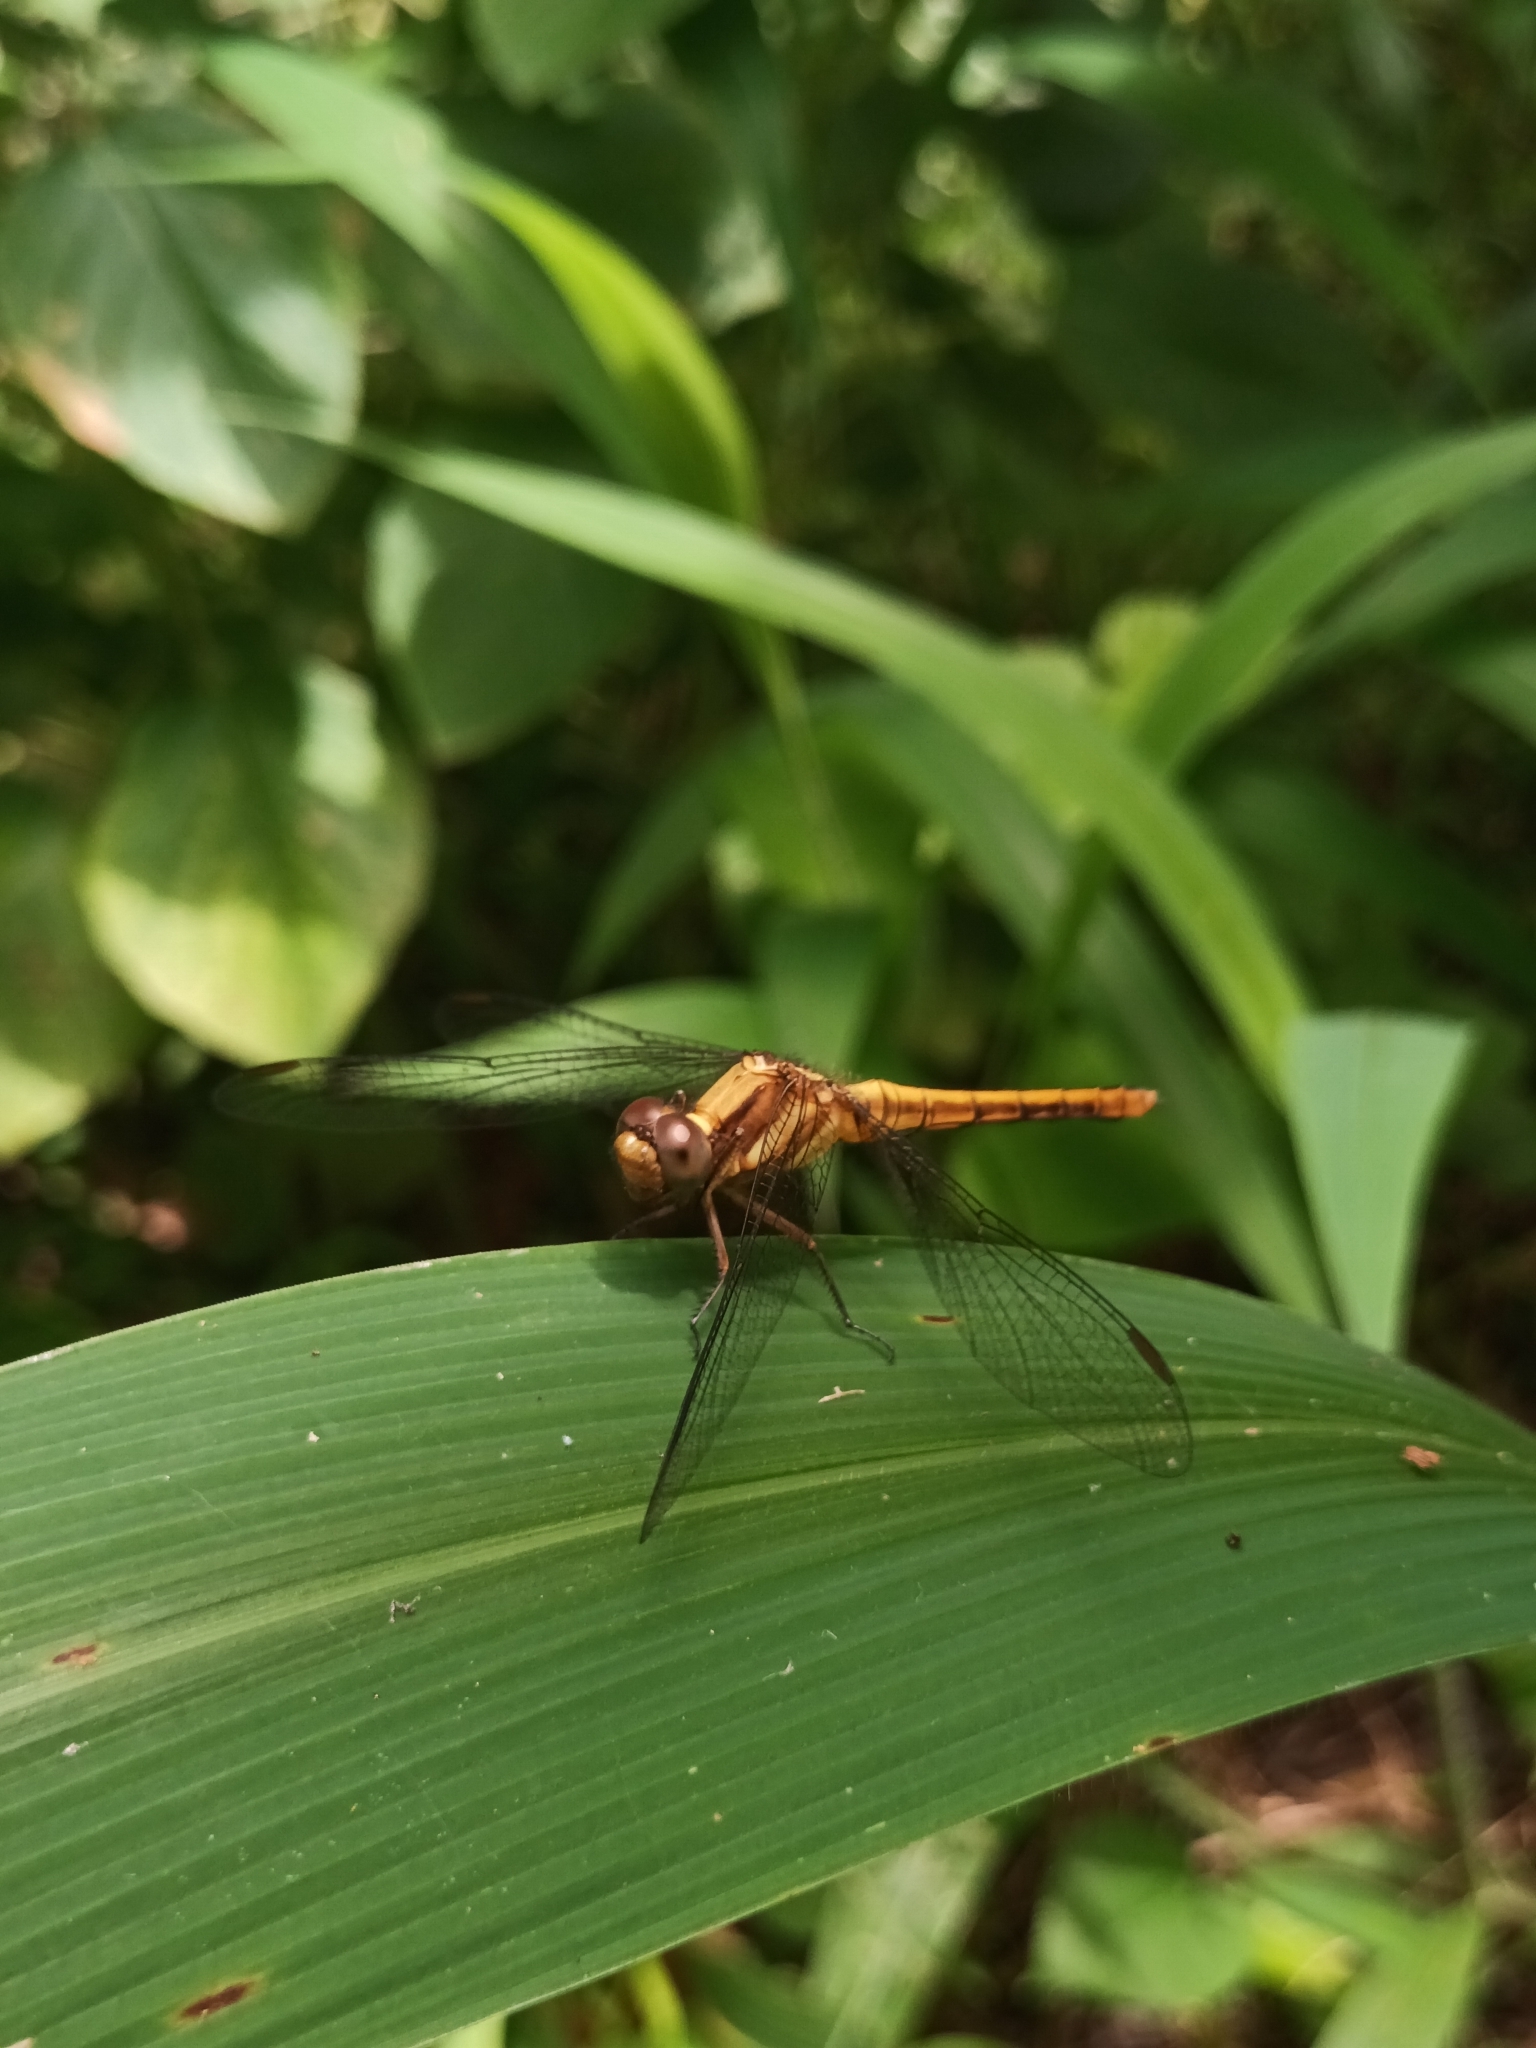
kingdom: Animalia
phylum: Arthropoda
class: Insecta
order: Odonata
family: Libellulidae
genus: Orthetrum
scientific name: Orthetrum glaucum
